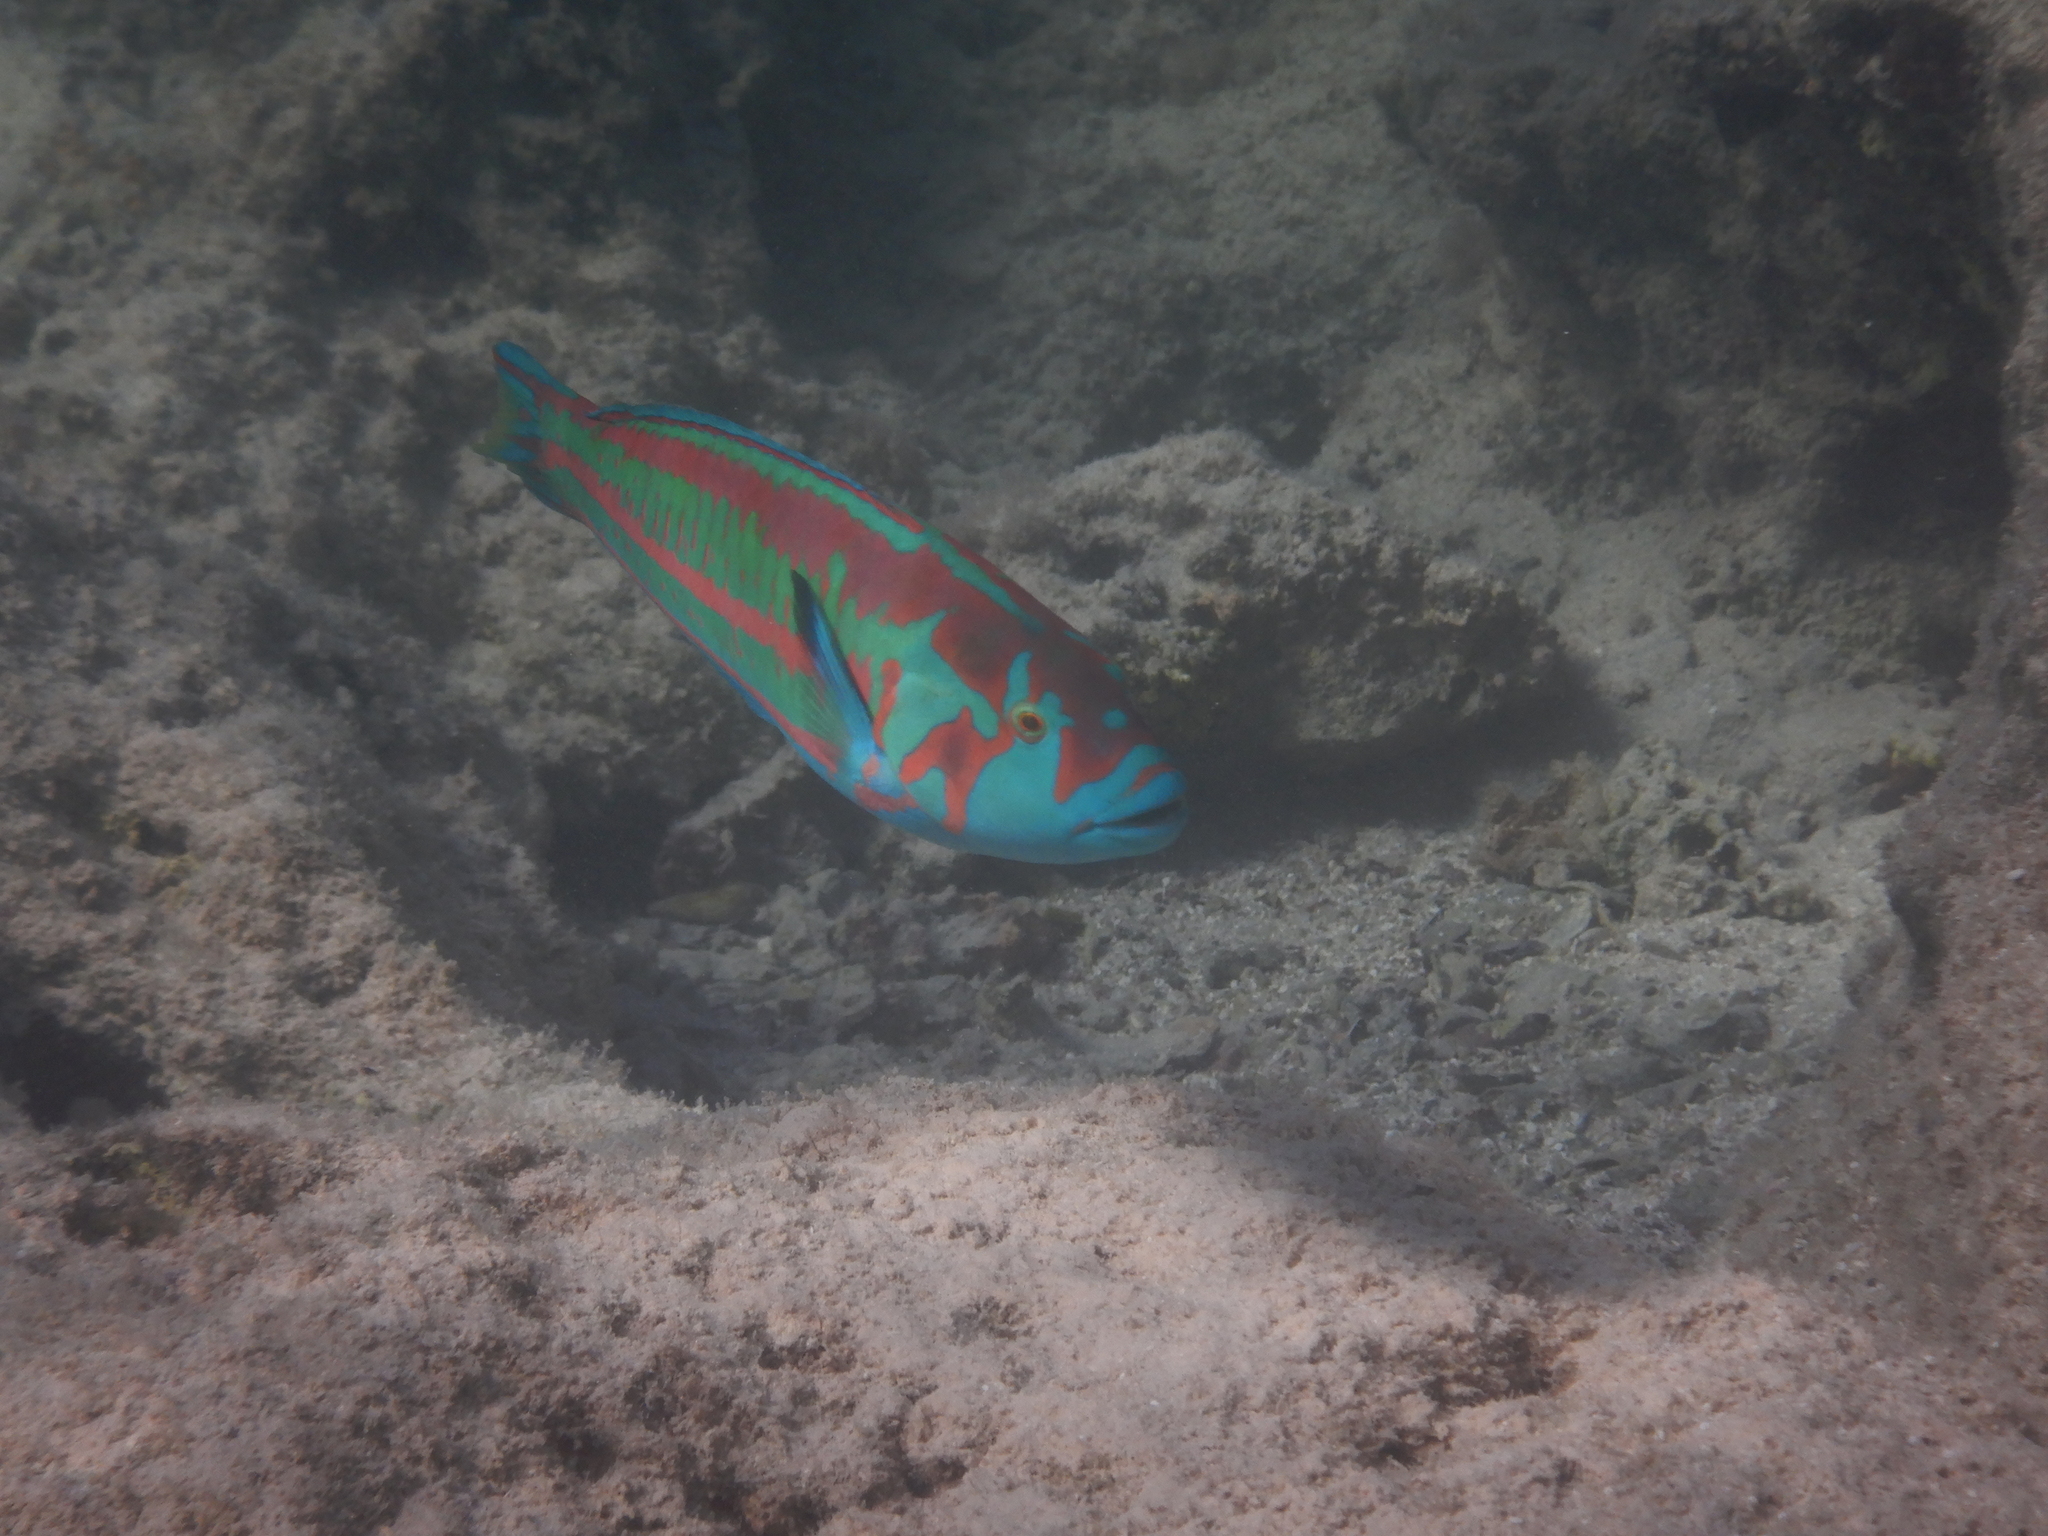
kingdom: Animalia
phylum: Chordata
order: Perciformes
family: Labridae
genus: Thalassoma
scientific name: Thalassoma purpureum
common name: Parrotfish
